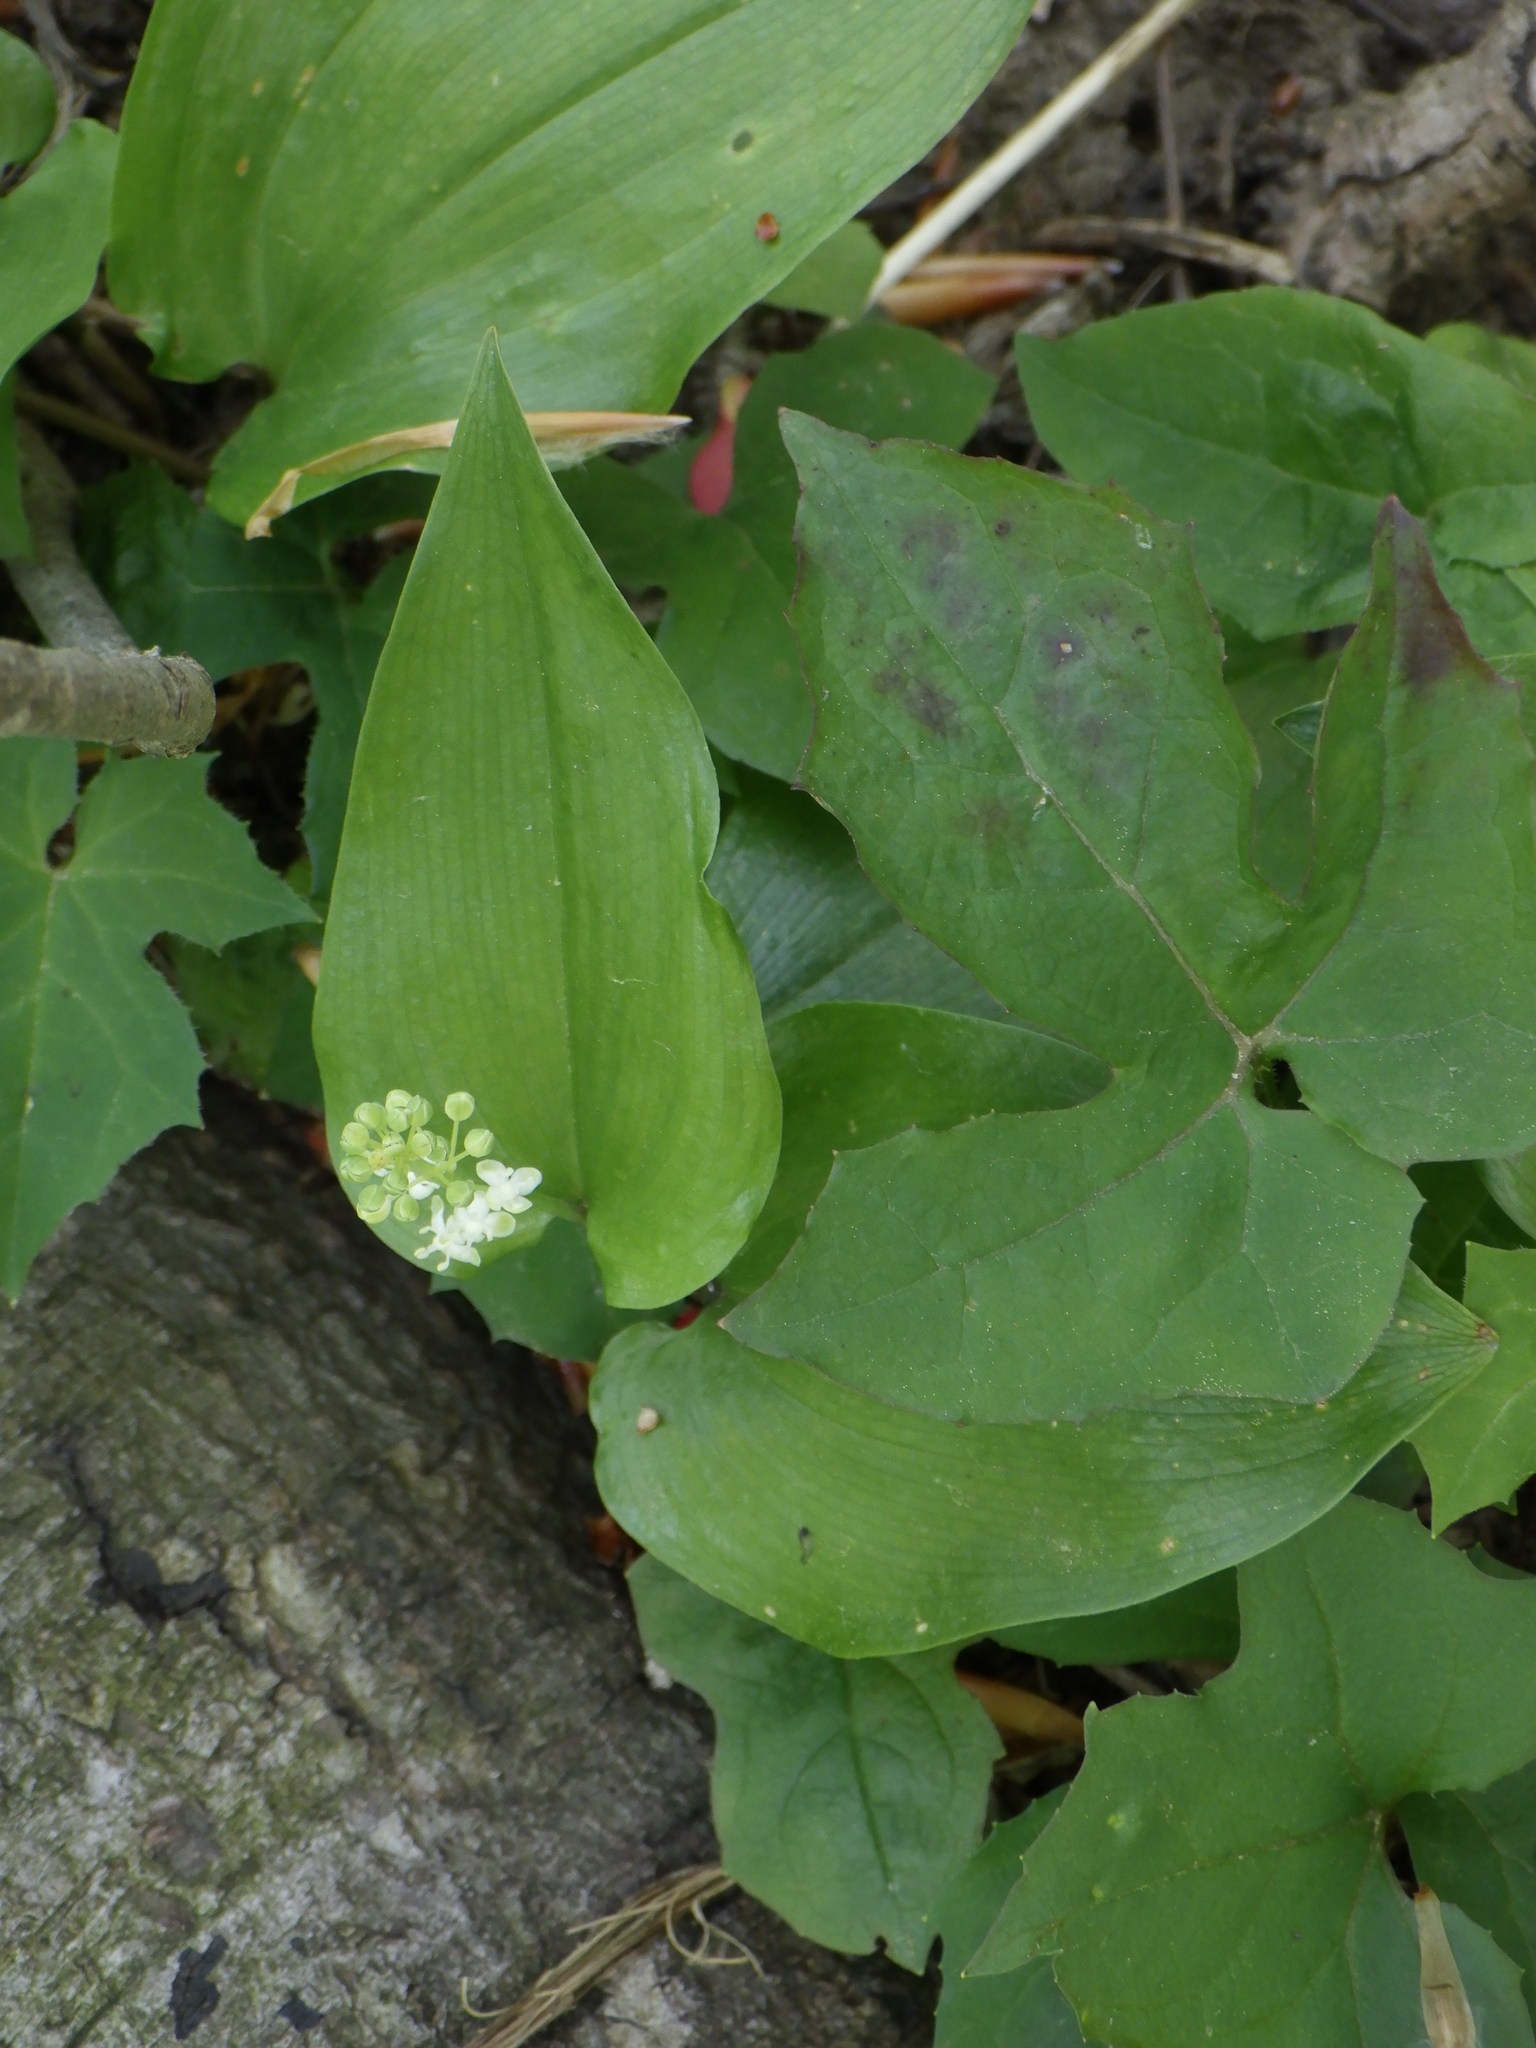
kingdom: Plantae
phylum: Tracheophyta
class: Liliopsida
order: Asparagales
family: Asparagaceae
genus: Maianthemum
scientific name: Maianthemum canadense
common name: False lily-of-the-valley
